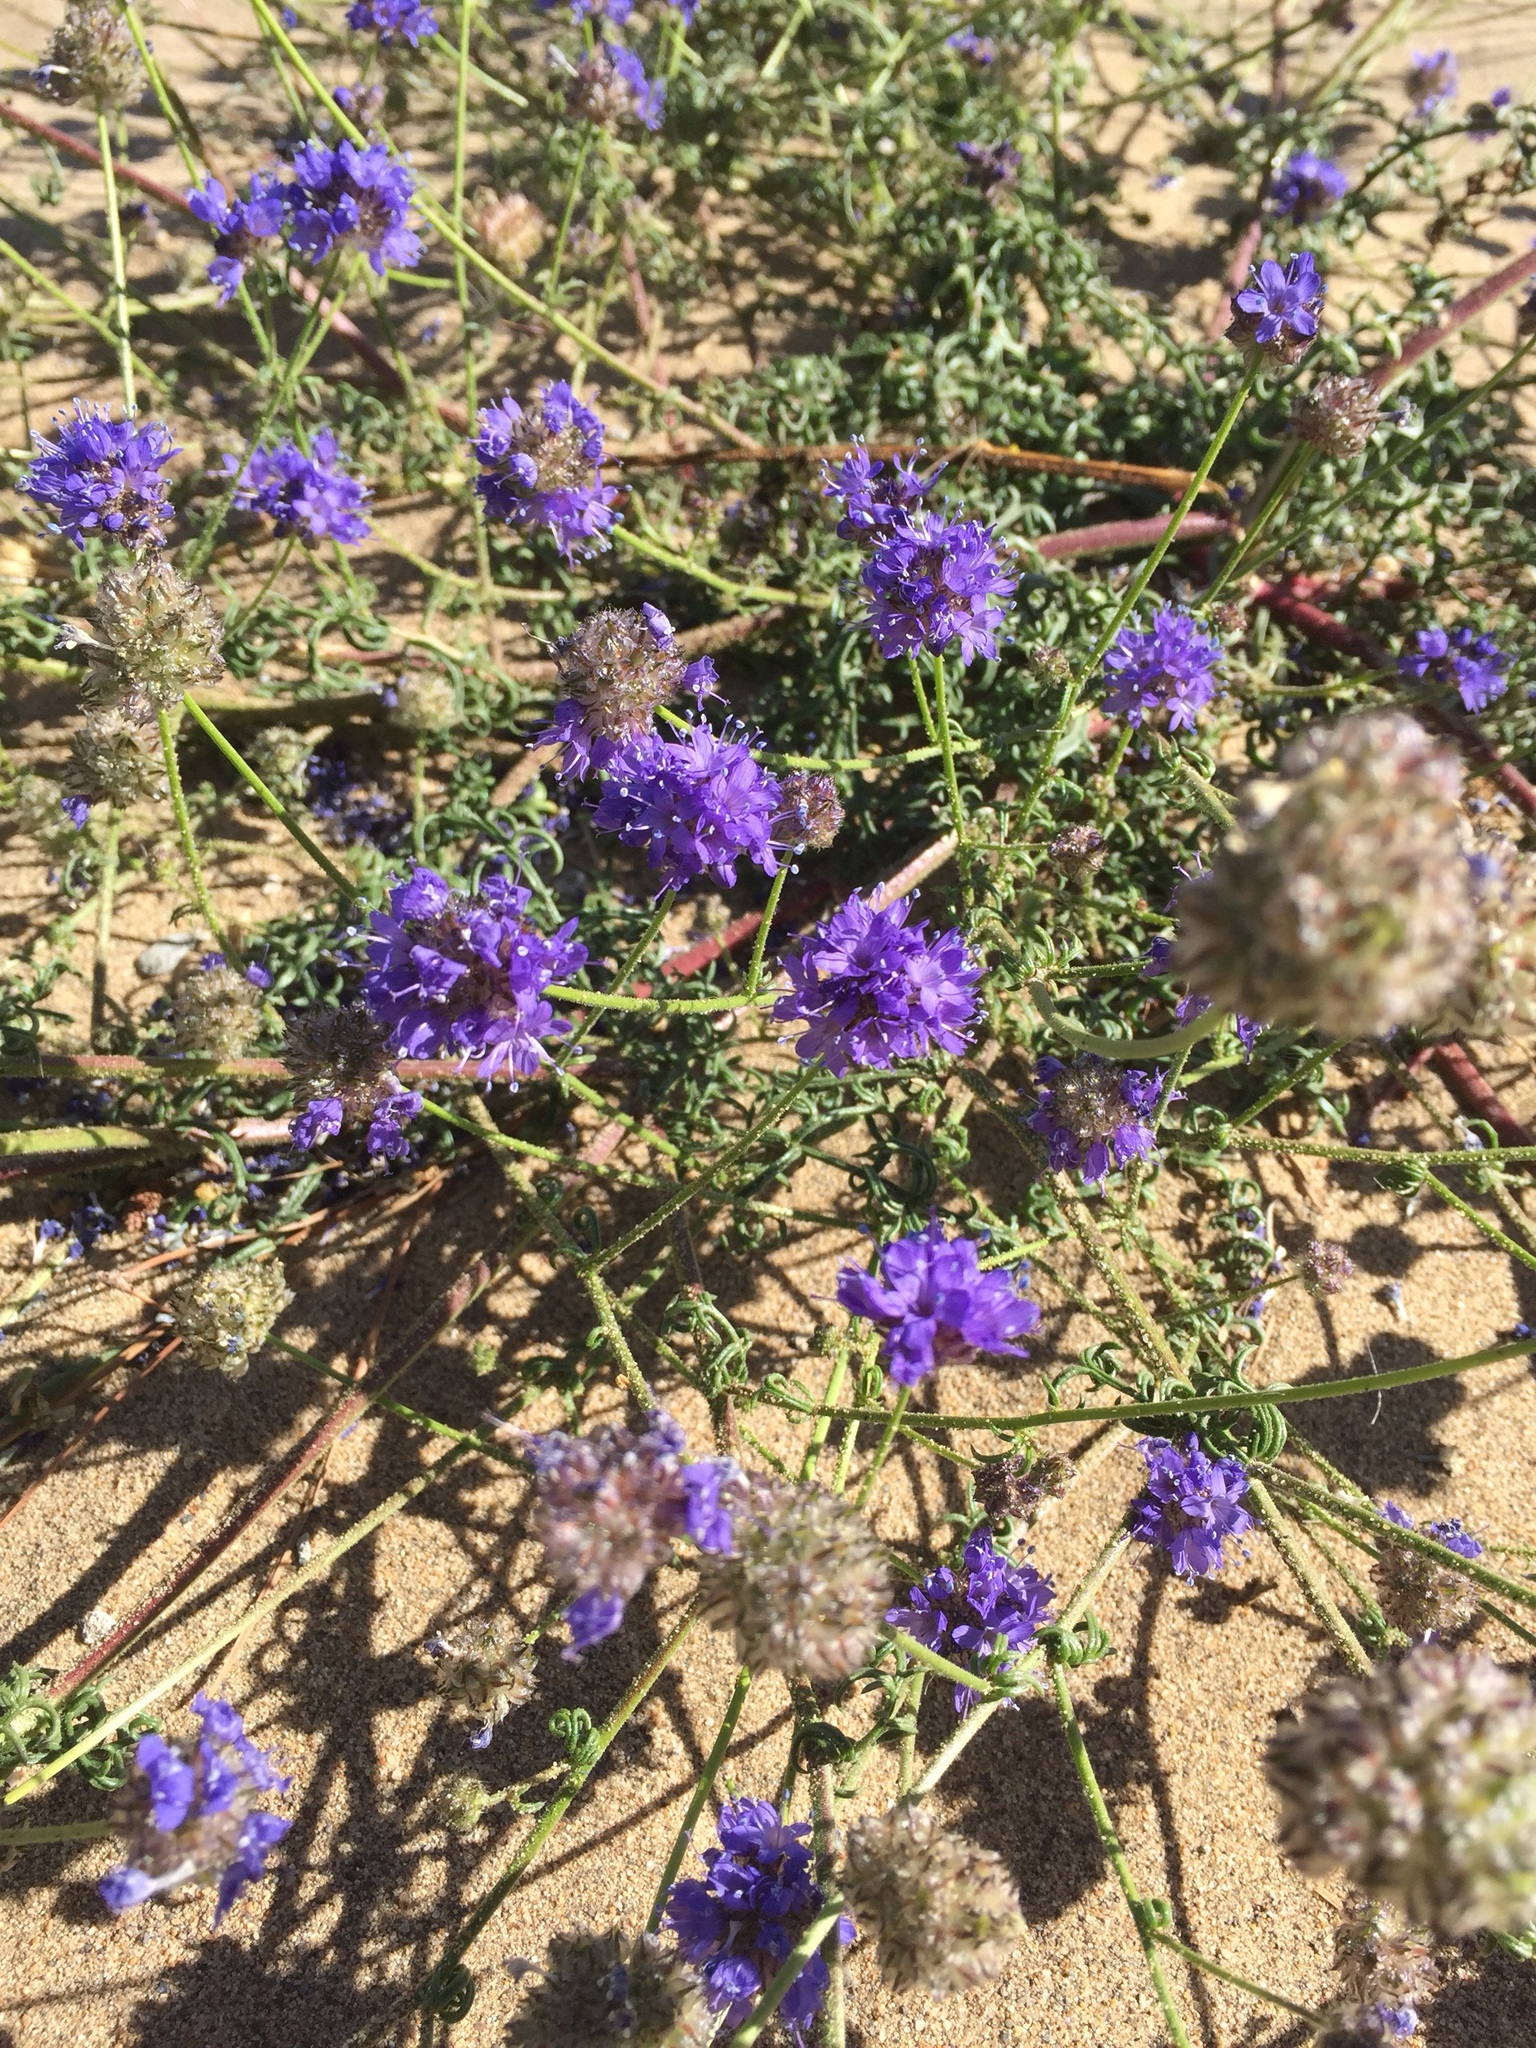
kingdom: Plantae
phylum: Tracheophyta
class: Magnoliopsida
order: Ericales
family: Polemoniaceae
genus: Gilia
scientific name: Gilia capitata
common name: Bluehead gilia
